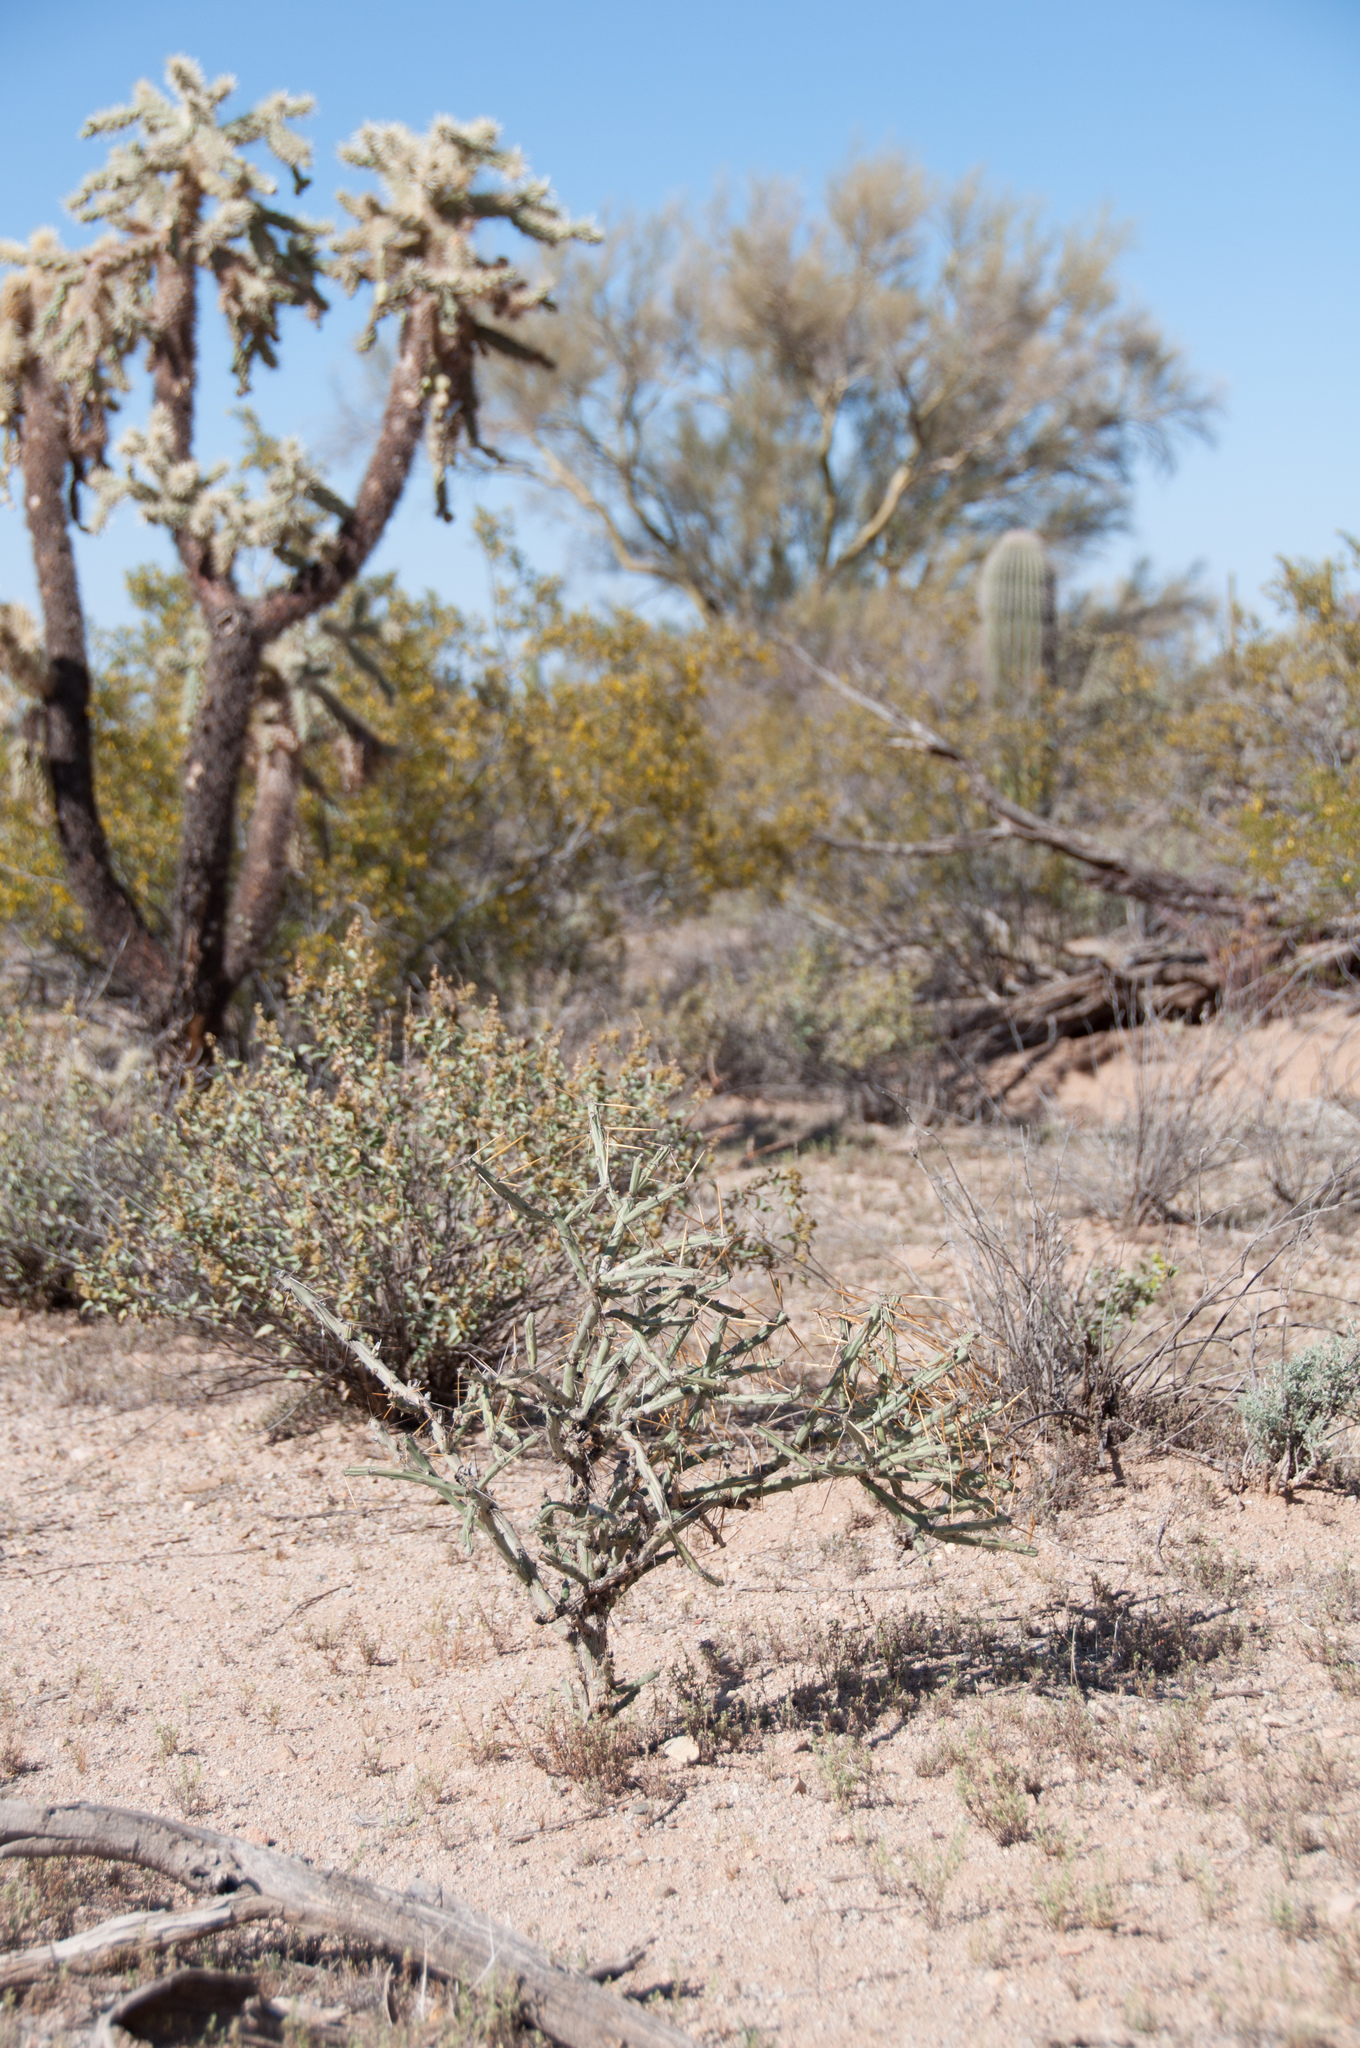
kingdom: Plantae
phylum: Tracheophyta
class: Magnoliopsida
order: Caryophyllales
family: Cactaceae
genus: Cylindropuntia
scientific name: Cylindropuntia arbuscula
